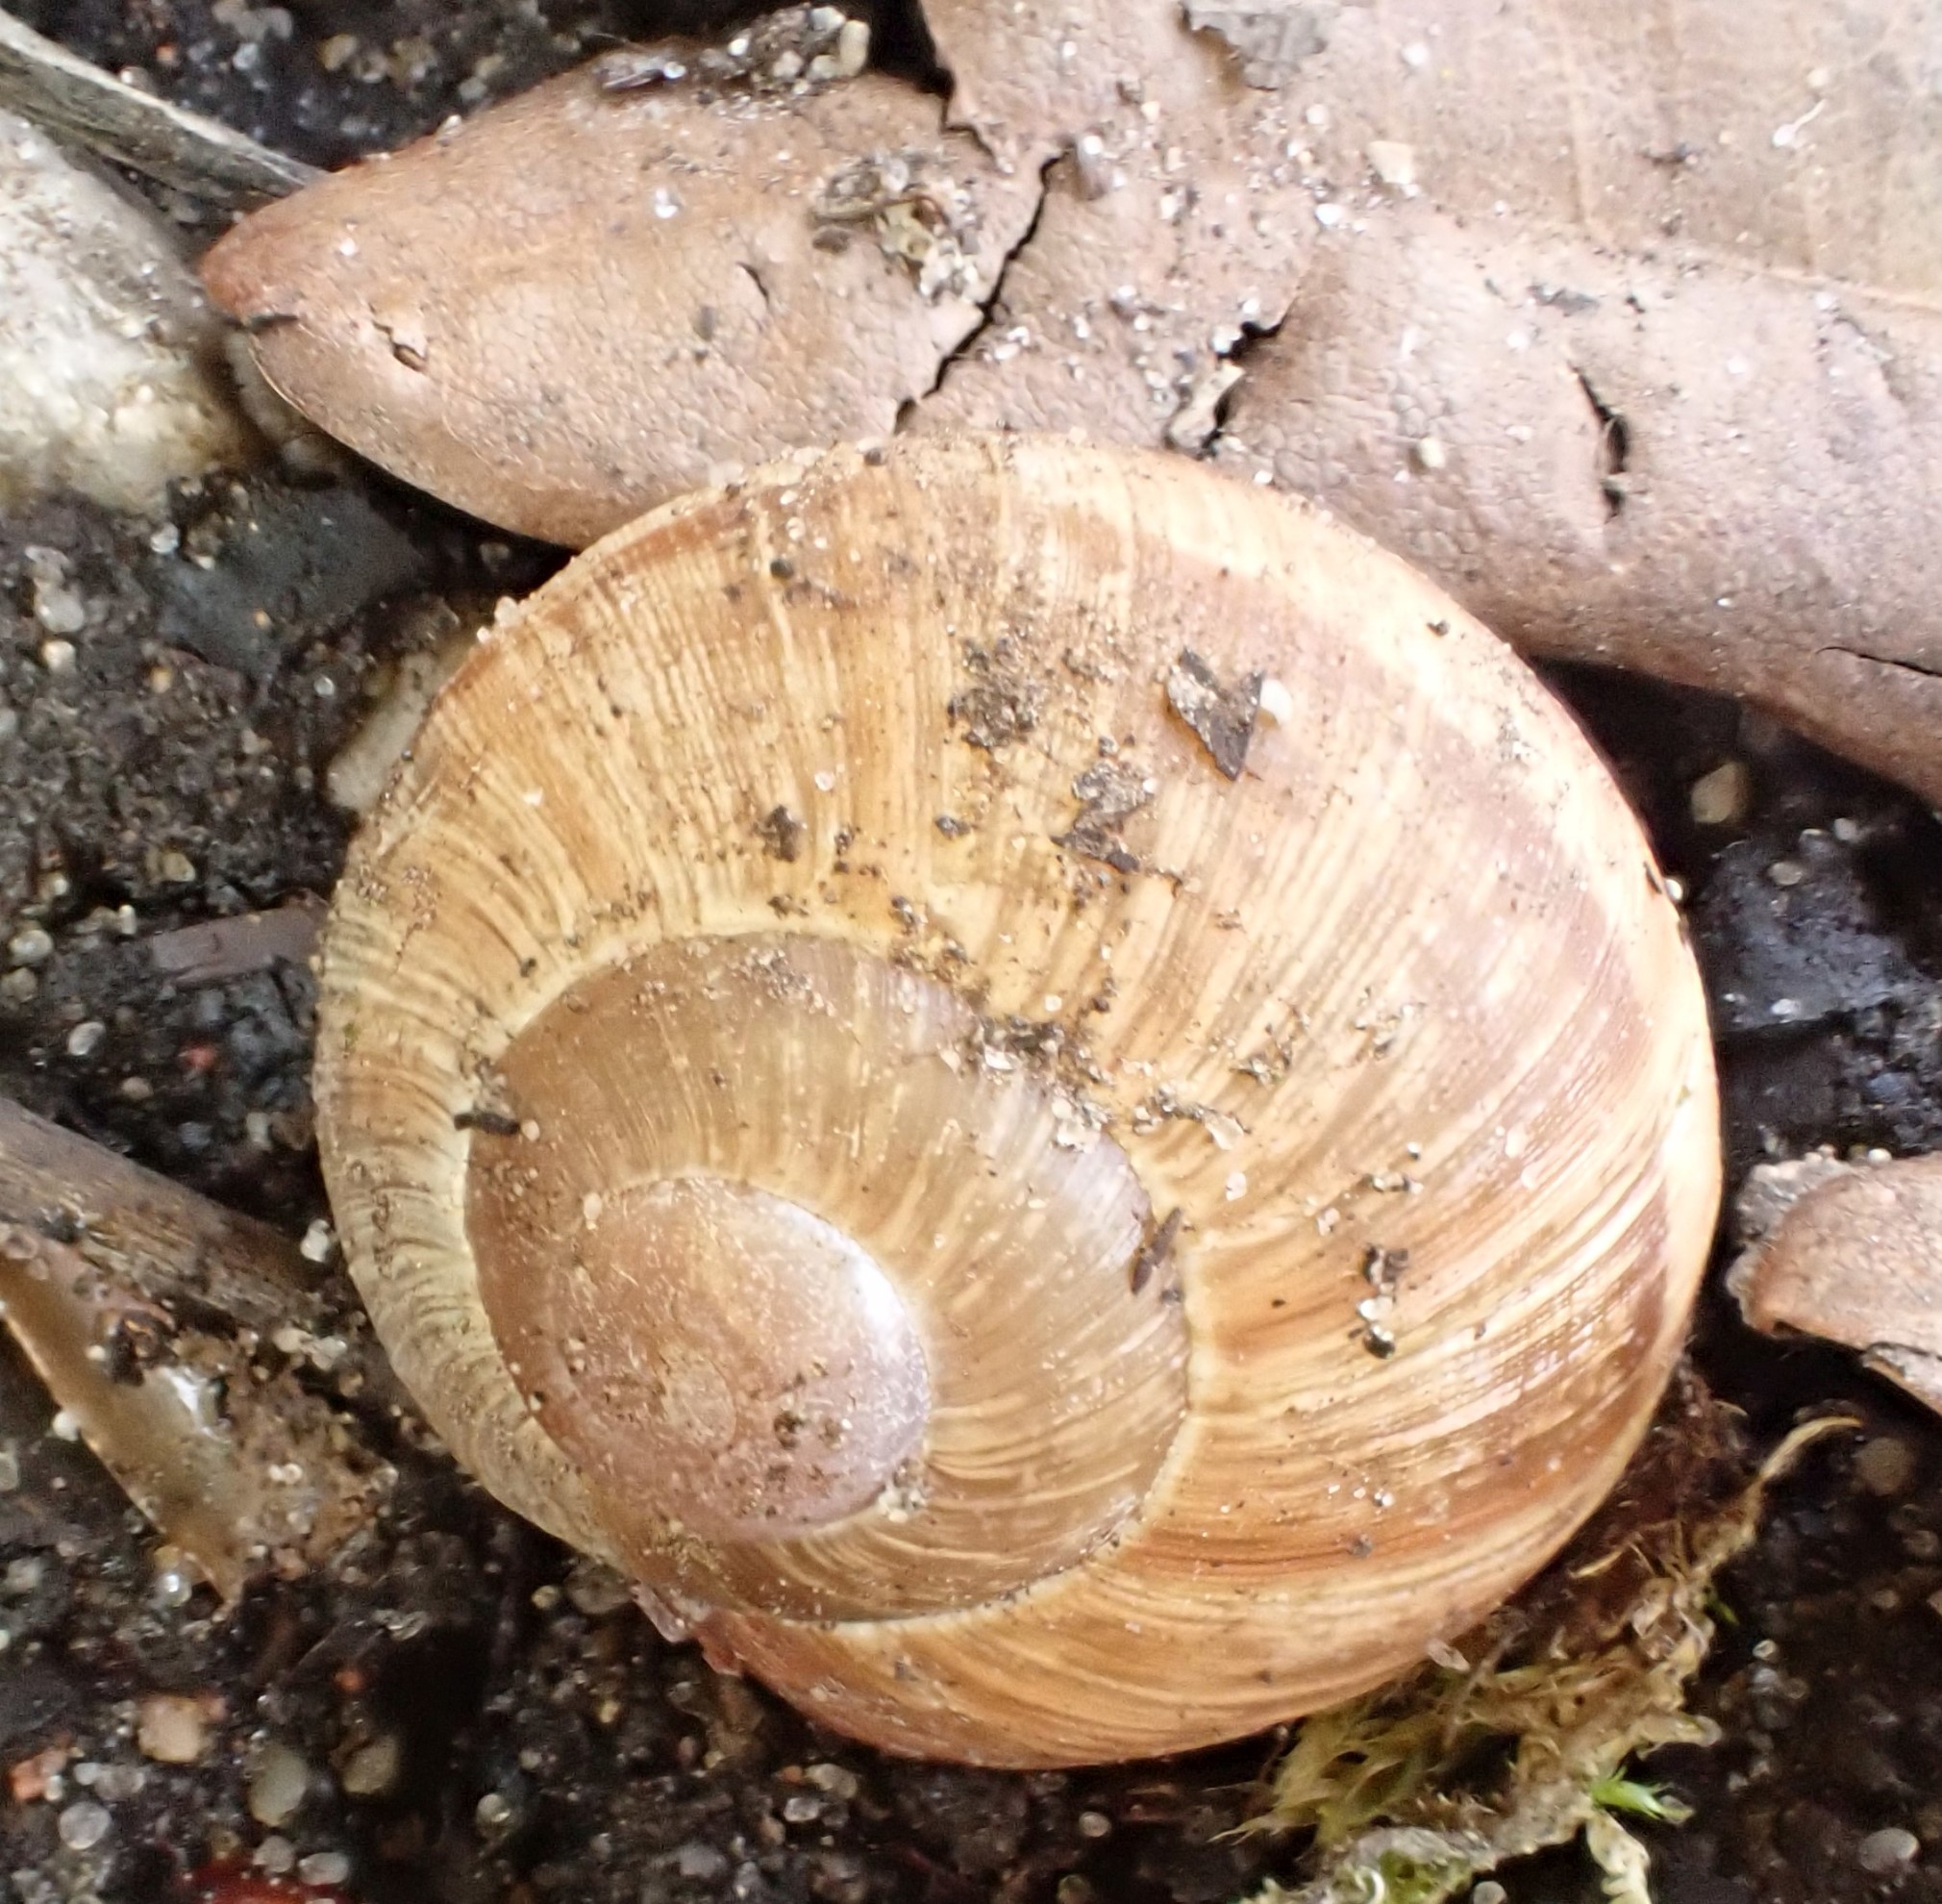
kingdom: Animalia
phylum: Mollusca
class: Gastropoda
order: Stylommatophora
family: Helicidae
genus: Helix
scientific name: Helix pomatia
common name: Roman snail
